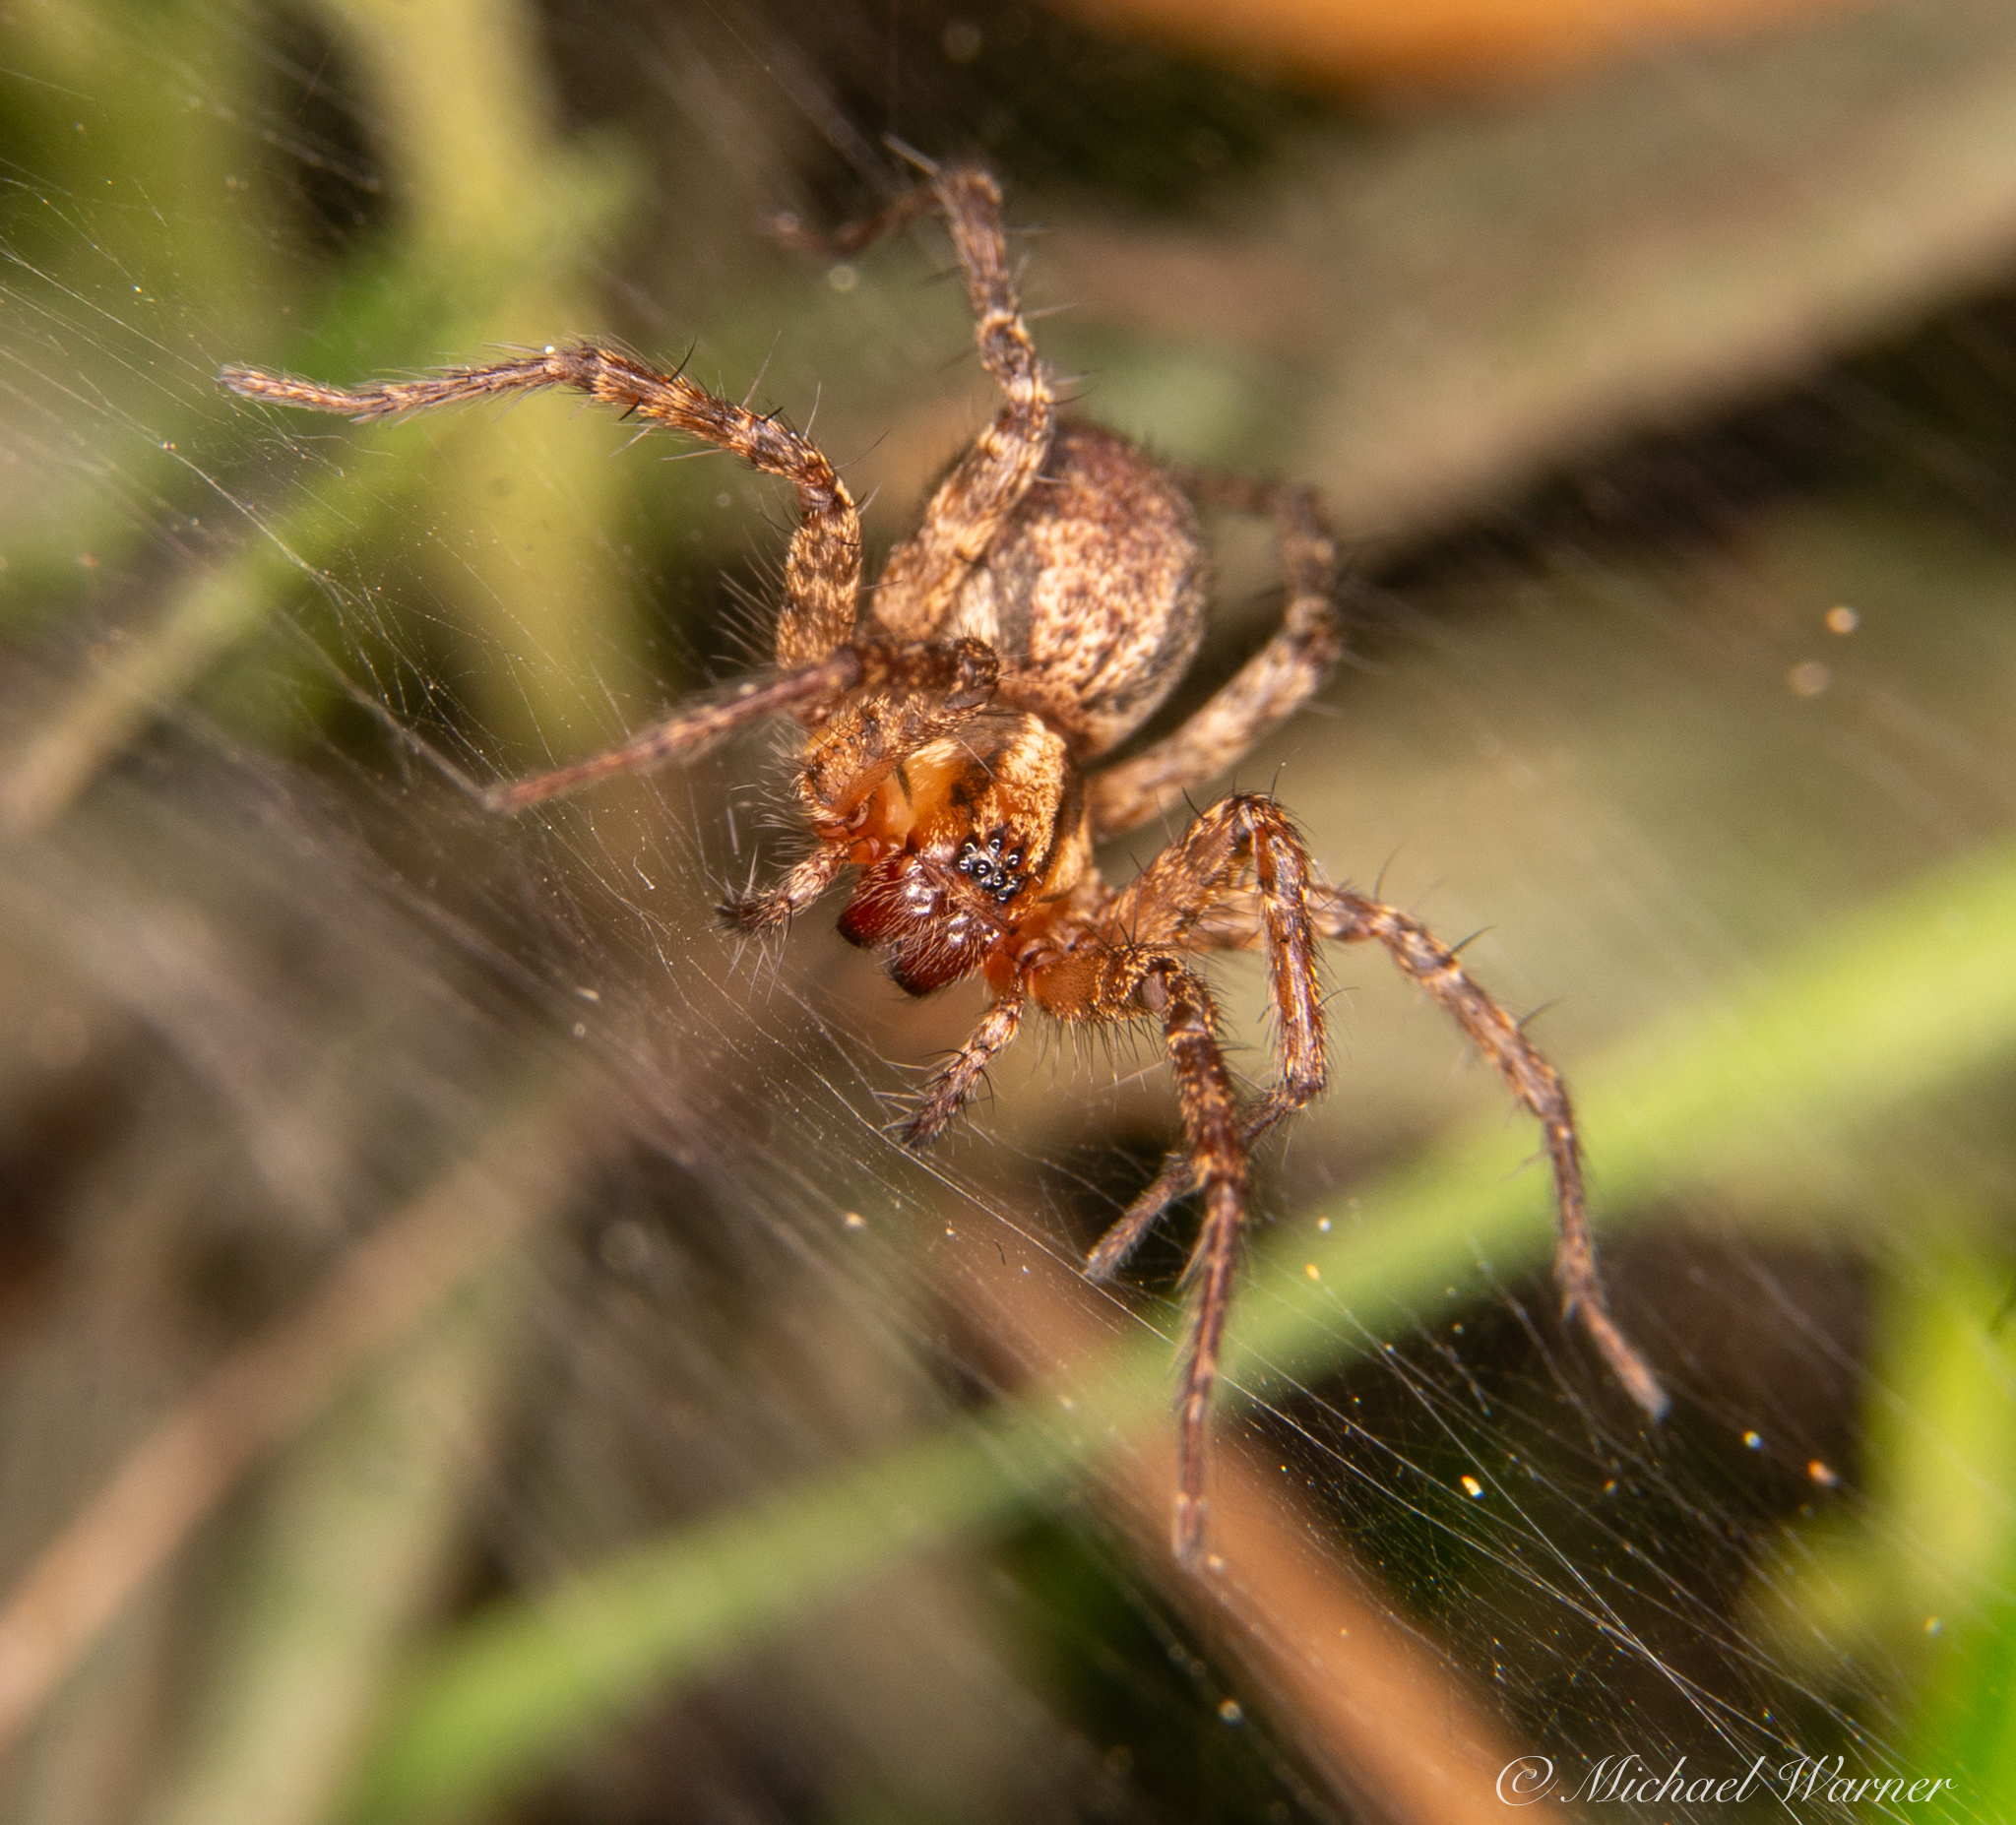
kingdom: Animalia
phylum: Arthropoda
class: Arachnida
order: Araneae
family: Agelenidae
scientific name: Agelenidae
